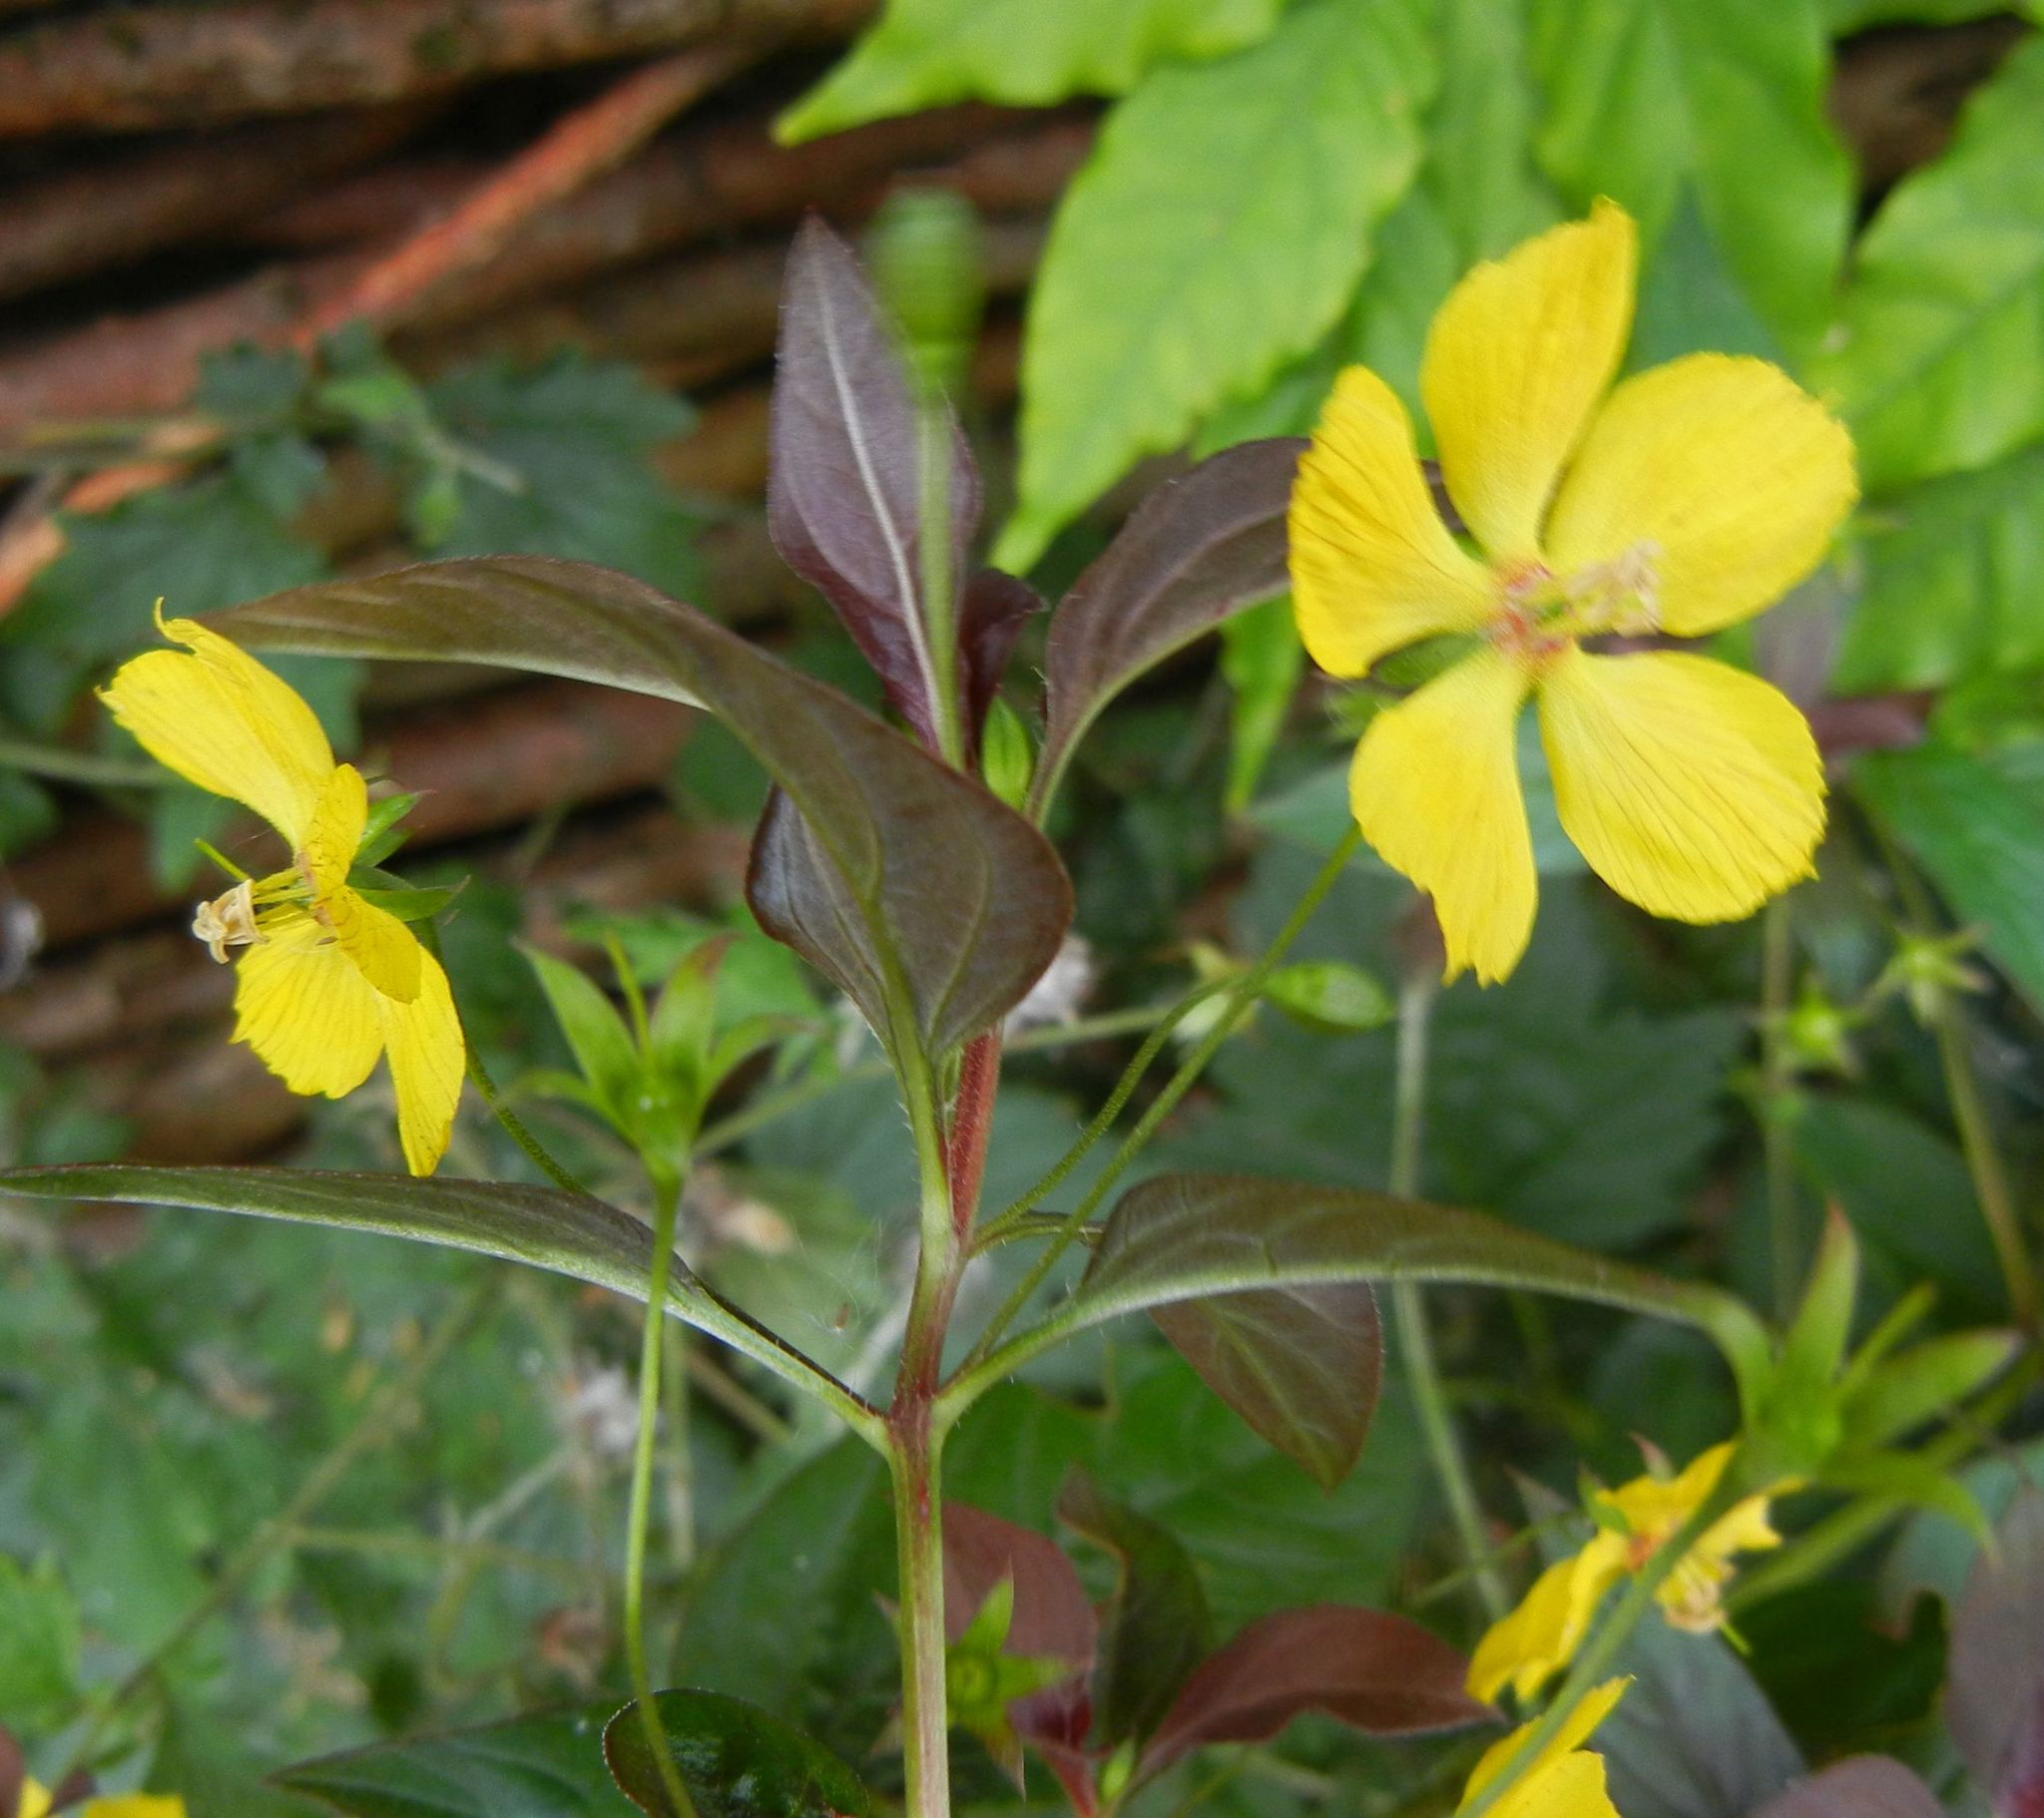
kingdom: Plantae
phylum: Tracheophyta
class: Magnoliopsida
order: Ericales
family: Primulaceae
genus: Lysimachia
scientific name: Lysimachia ciliata
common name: Fringed loosestrife
